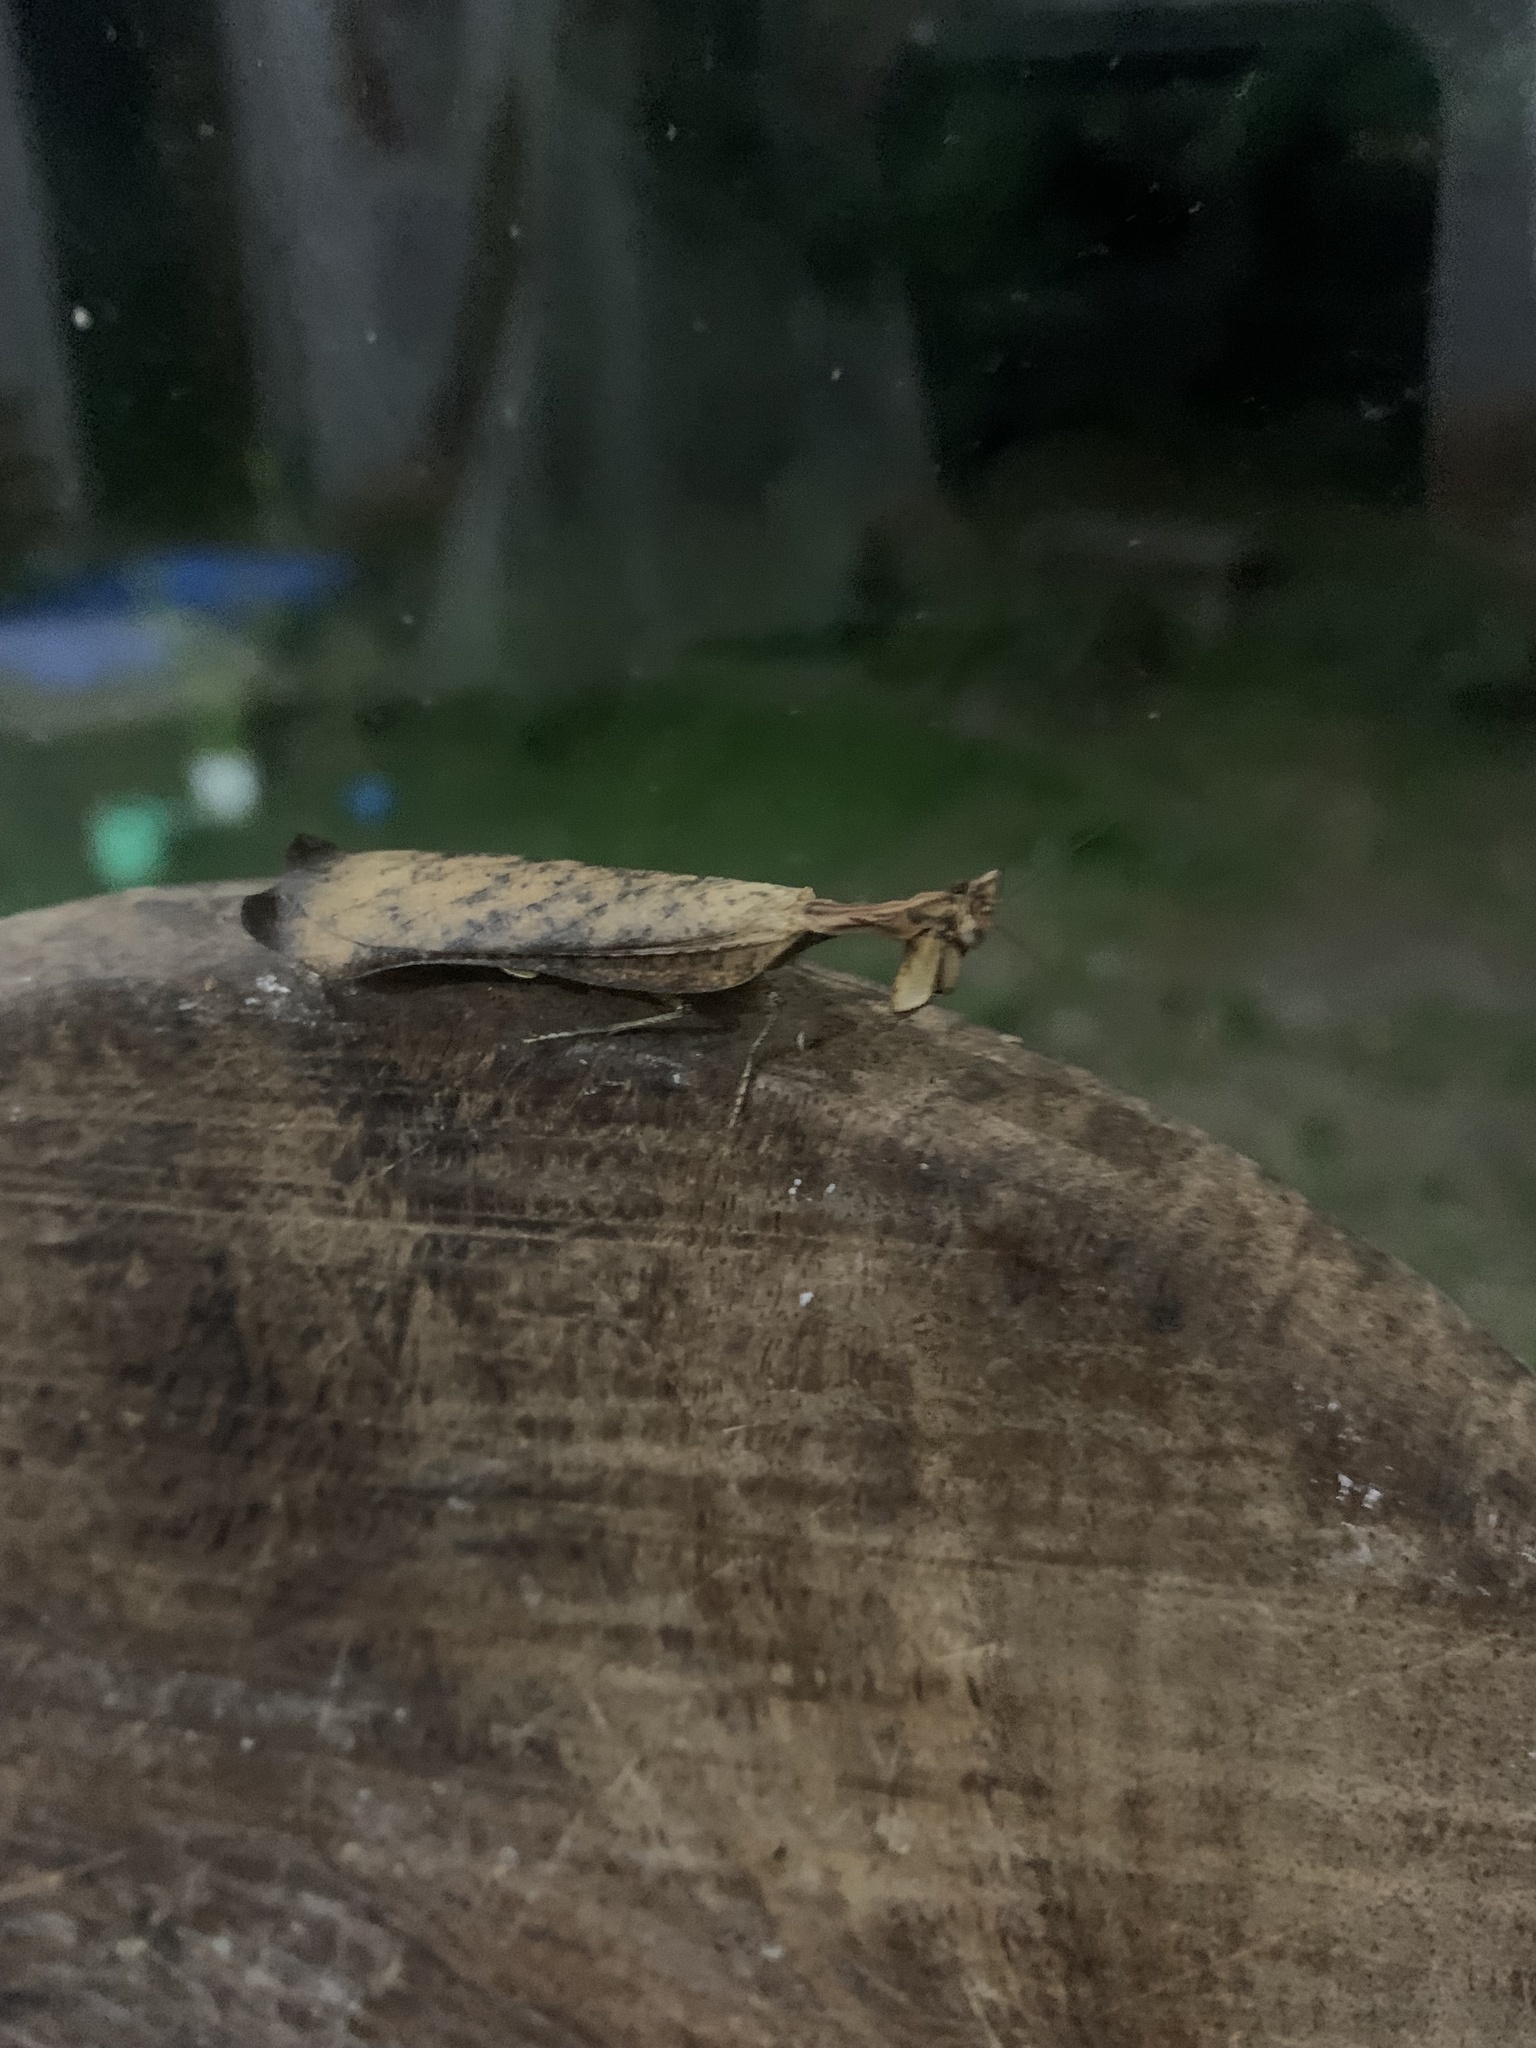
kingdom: Animalia
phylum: Arthropoda
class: Insecta
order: Mantodea
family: Acanthopidae
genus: Decimiana
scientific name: Decimiana rehni
